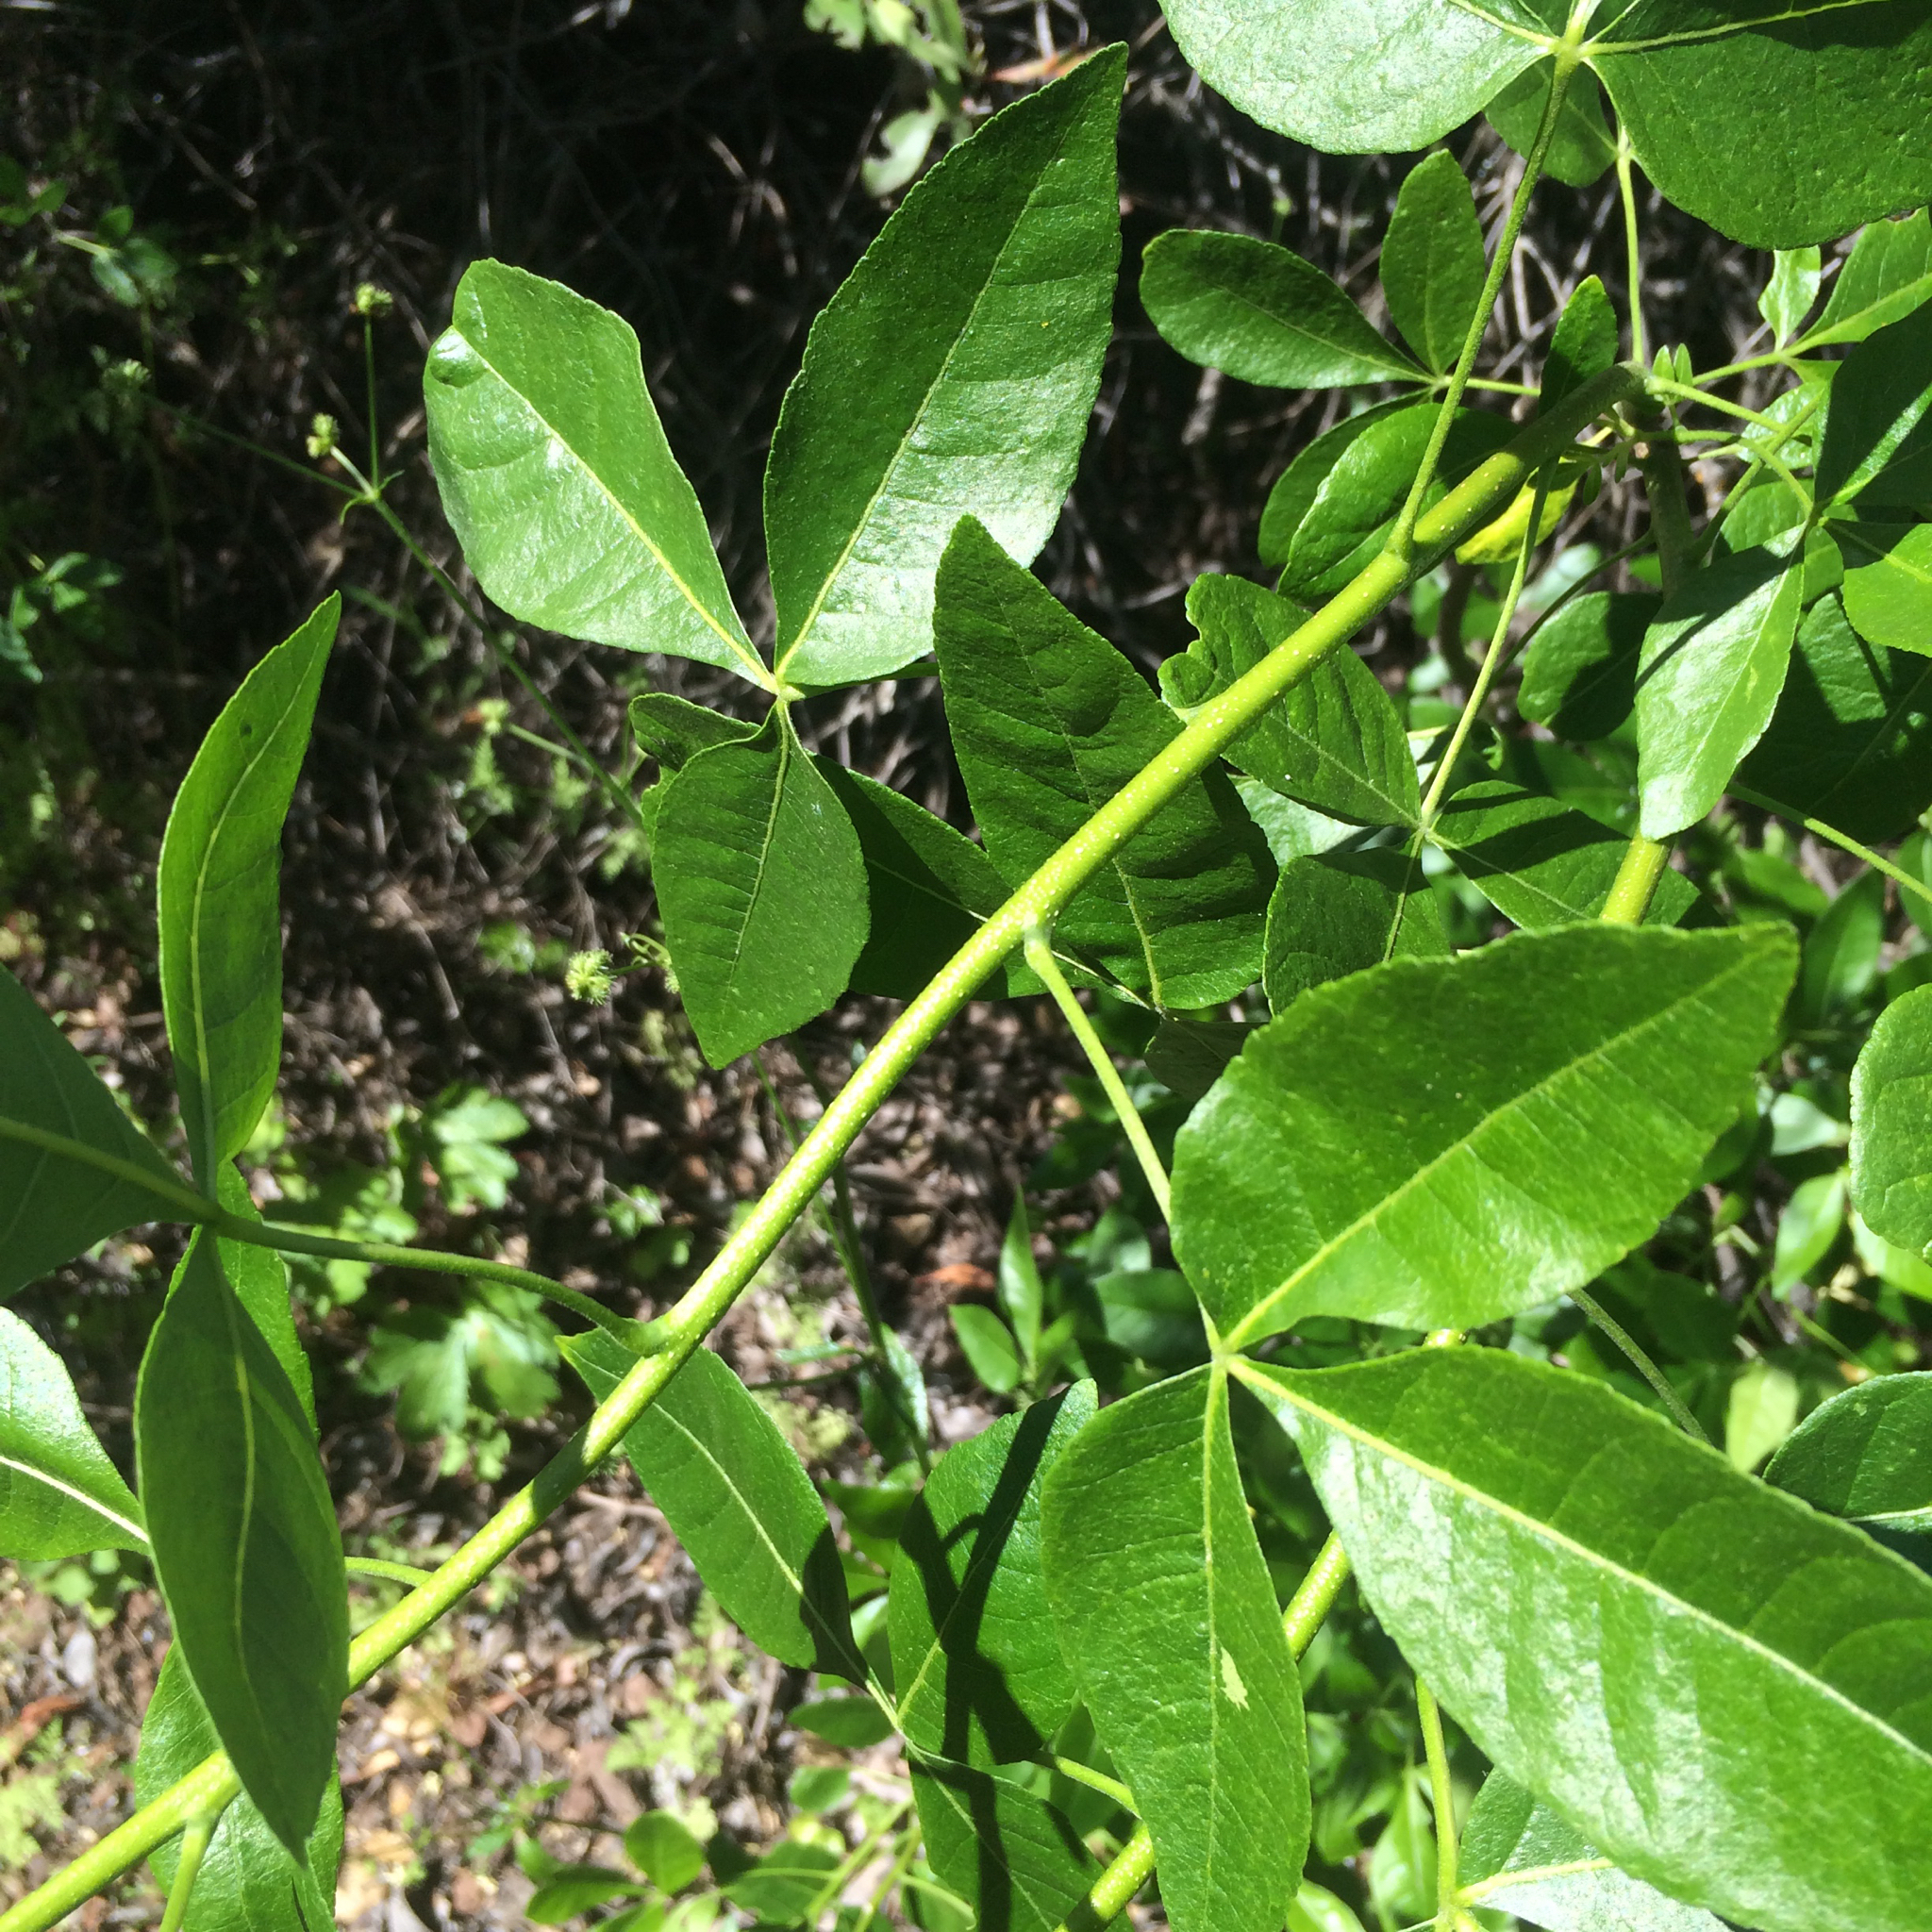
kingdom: Plantae
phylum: Tracheophyta
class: Magnoliopsida
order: Sapindales
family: Rutaceae
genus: Ptelea
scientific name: Ptelea crenulata
